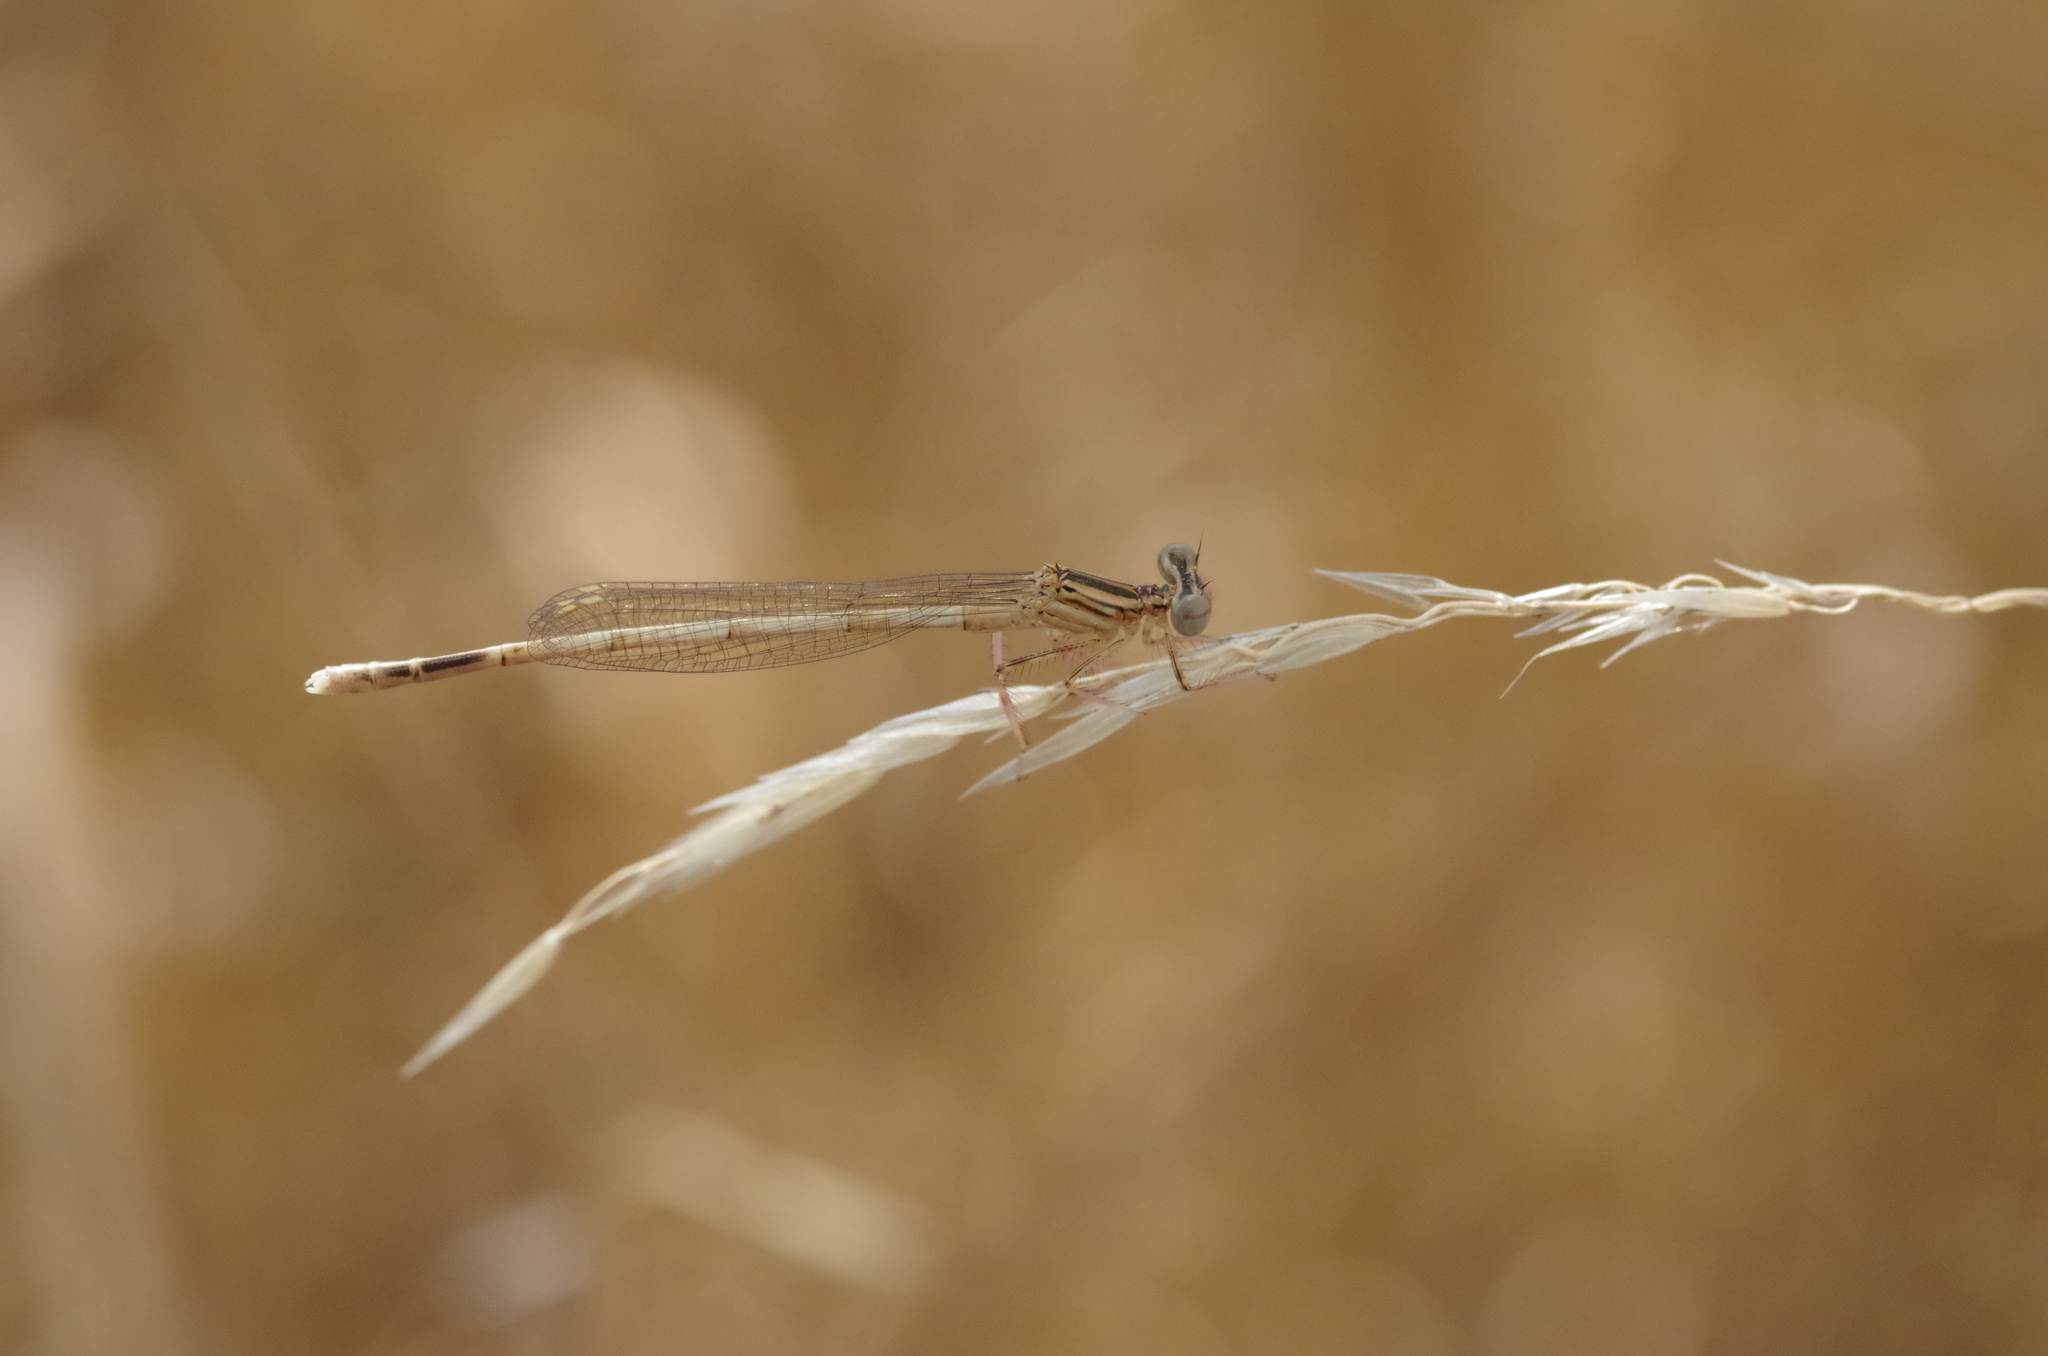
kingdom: Animalia
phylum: Arthropoda
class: Insecta
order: Odonata
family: Platycnemididae
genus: Platycnemis
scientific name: Platycnemis pennipes
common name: White-legged damselfly
